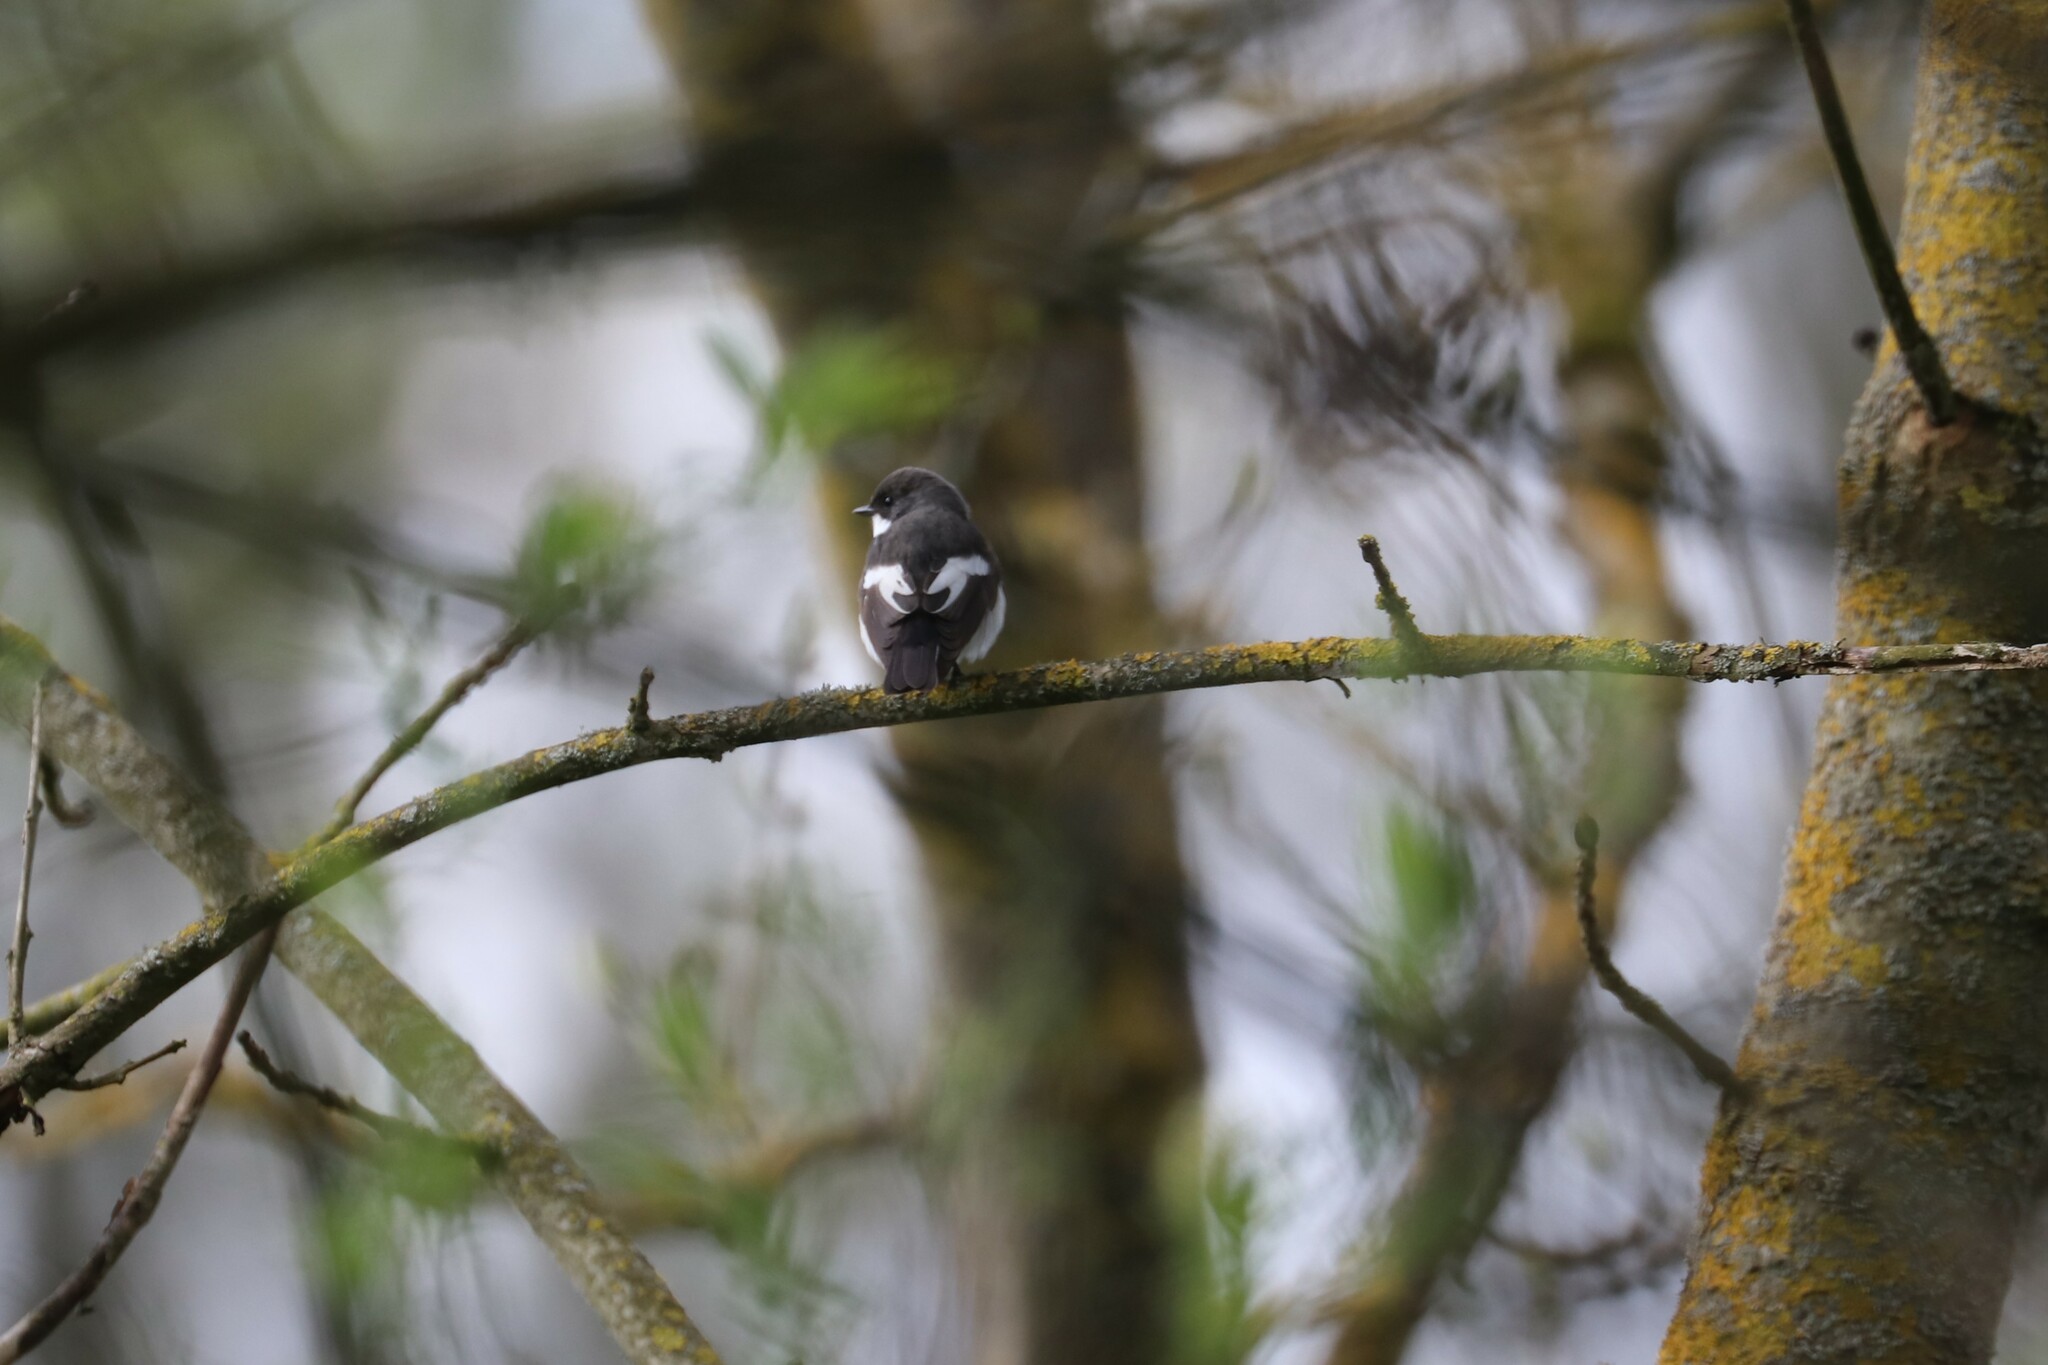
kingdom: Animalia
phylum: Chordata
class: Aves
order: Passeriformes
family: Muscicapidae
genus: Ficedula
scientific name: Ficedula hypoleuca
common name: European pied flycatcher
